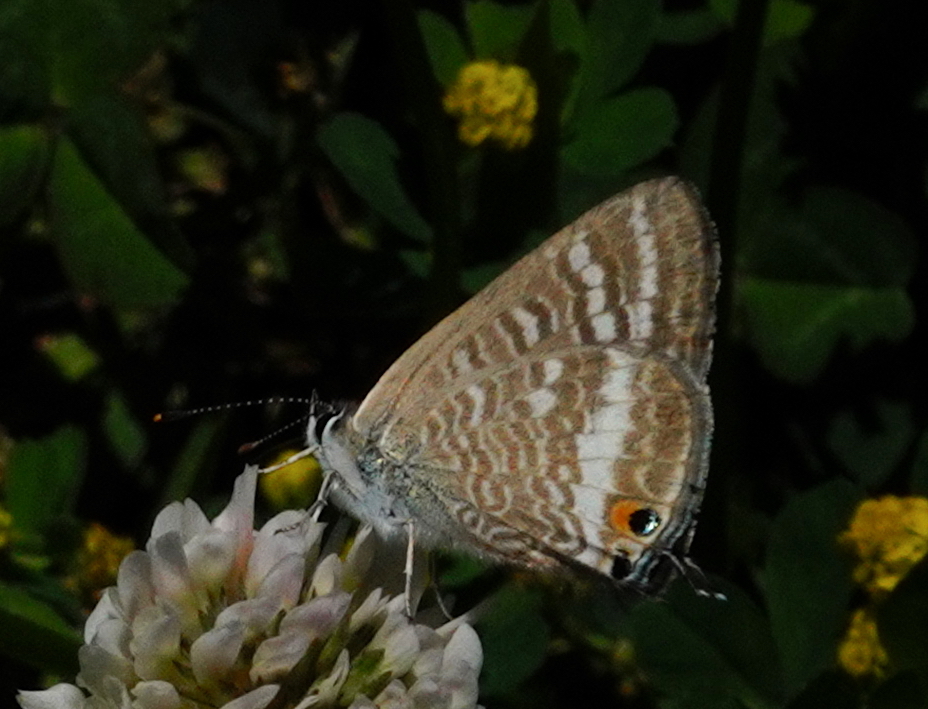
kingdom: Animalia
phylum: Arthropoda
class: Insecta
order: Lepidoptera
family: Lycaenidae
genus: Lampides
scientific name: Lampides boeticus
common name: Long-tailed blue
